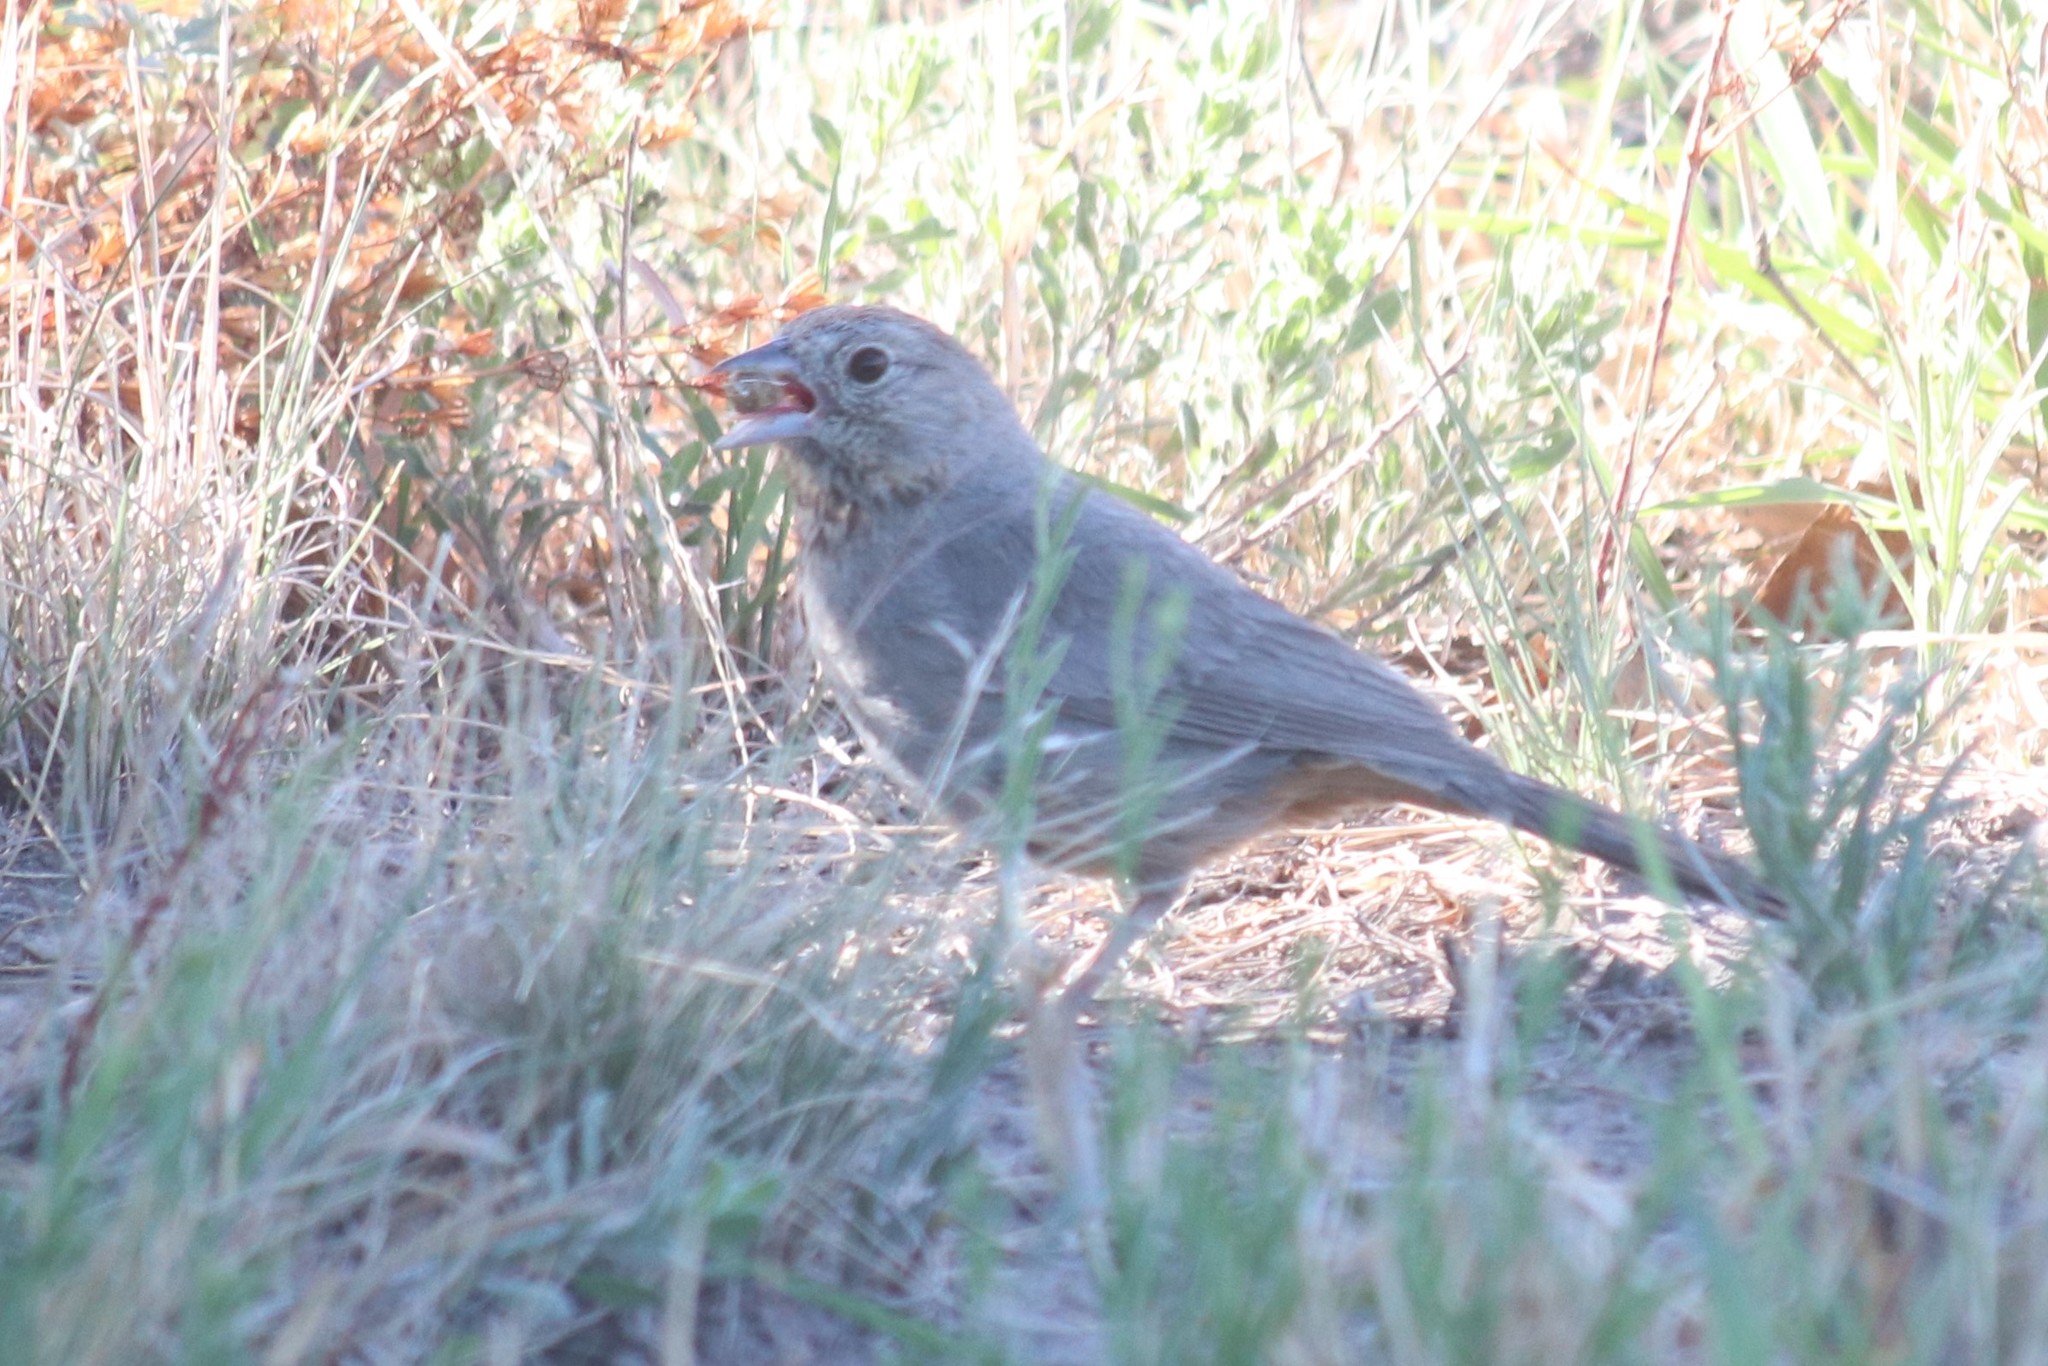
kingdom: Animalia
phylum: Chordata
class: Aves
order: Passeriformes
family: Passerellidae
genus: Melozone
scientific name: Melozone fusca
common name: Canyon towhee
